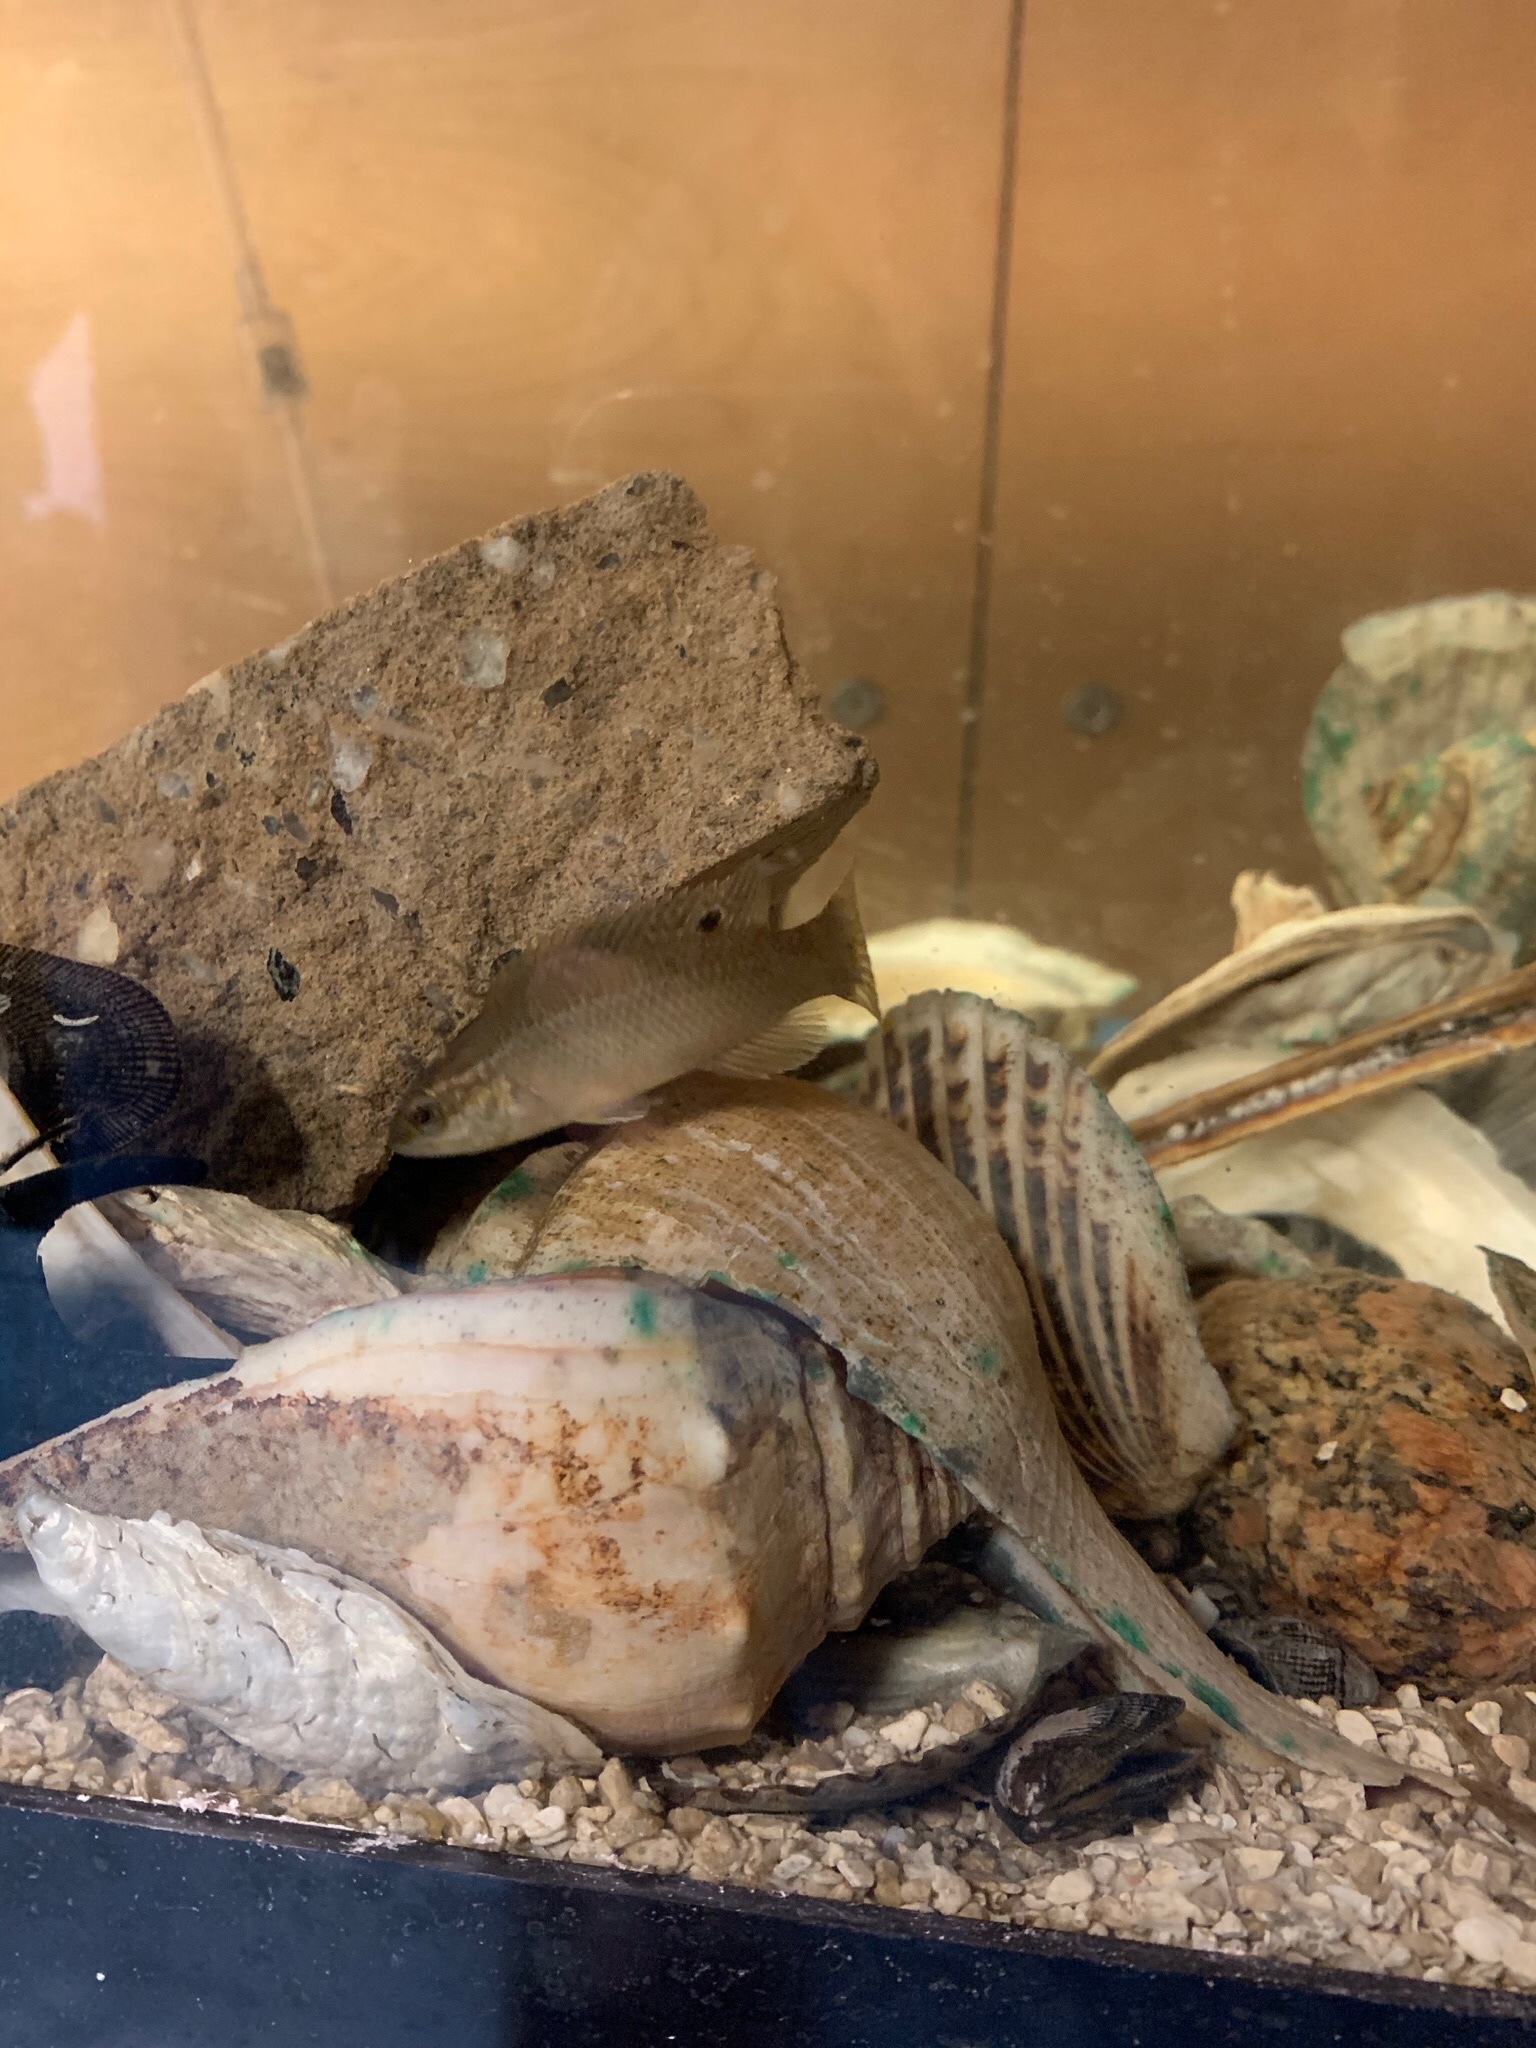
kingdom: Animalia
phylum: Chordata
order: Perciformes
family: Labridae
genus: Tautogolabrus
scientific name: Tautogolabrus adspersus
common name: Cunner
